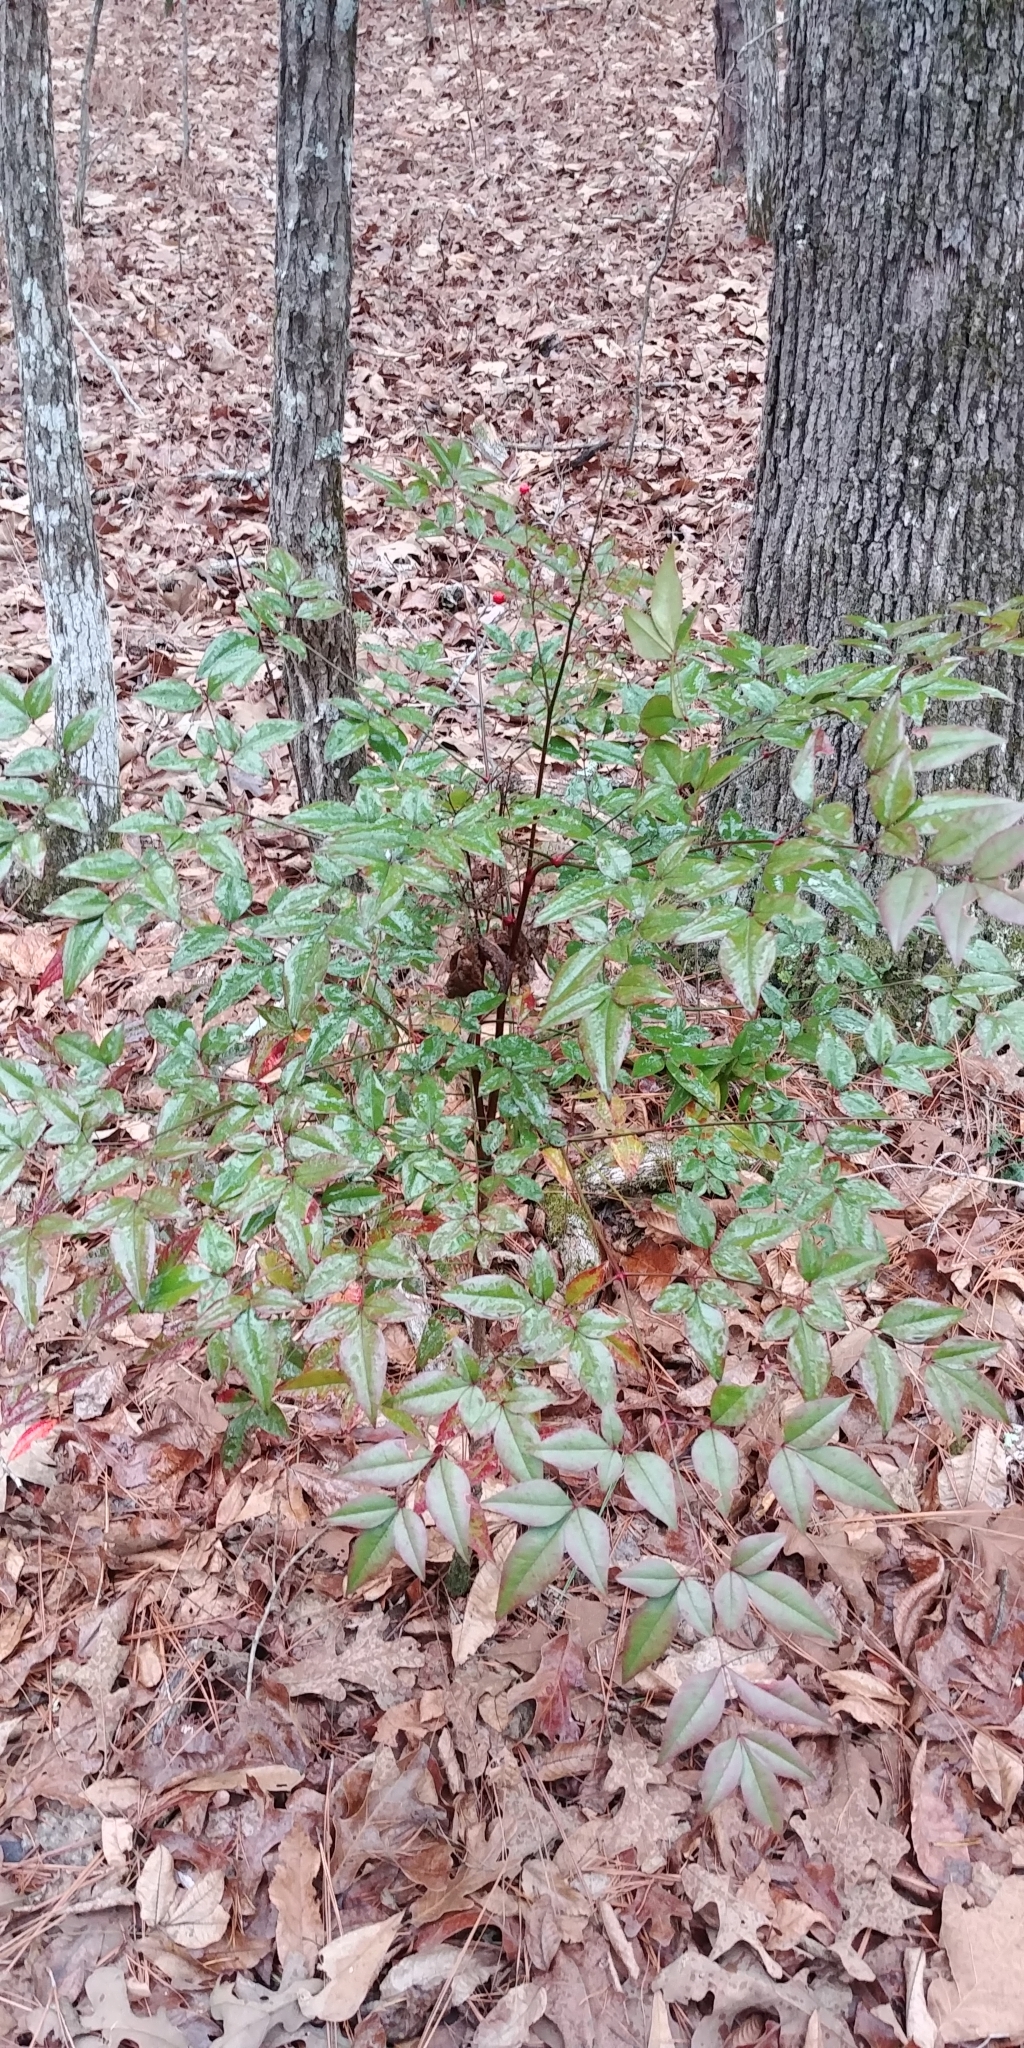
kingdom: Plantae
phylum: Tracheophyta
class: Magnoliopsida
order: Ranunculales
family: Berberidaceae
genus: Nandina
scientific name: Nandina domestica
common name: Sacred bamboo
